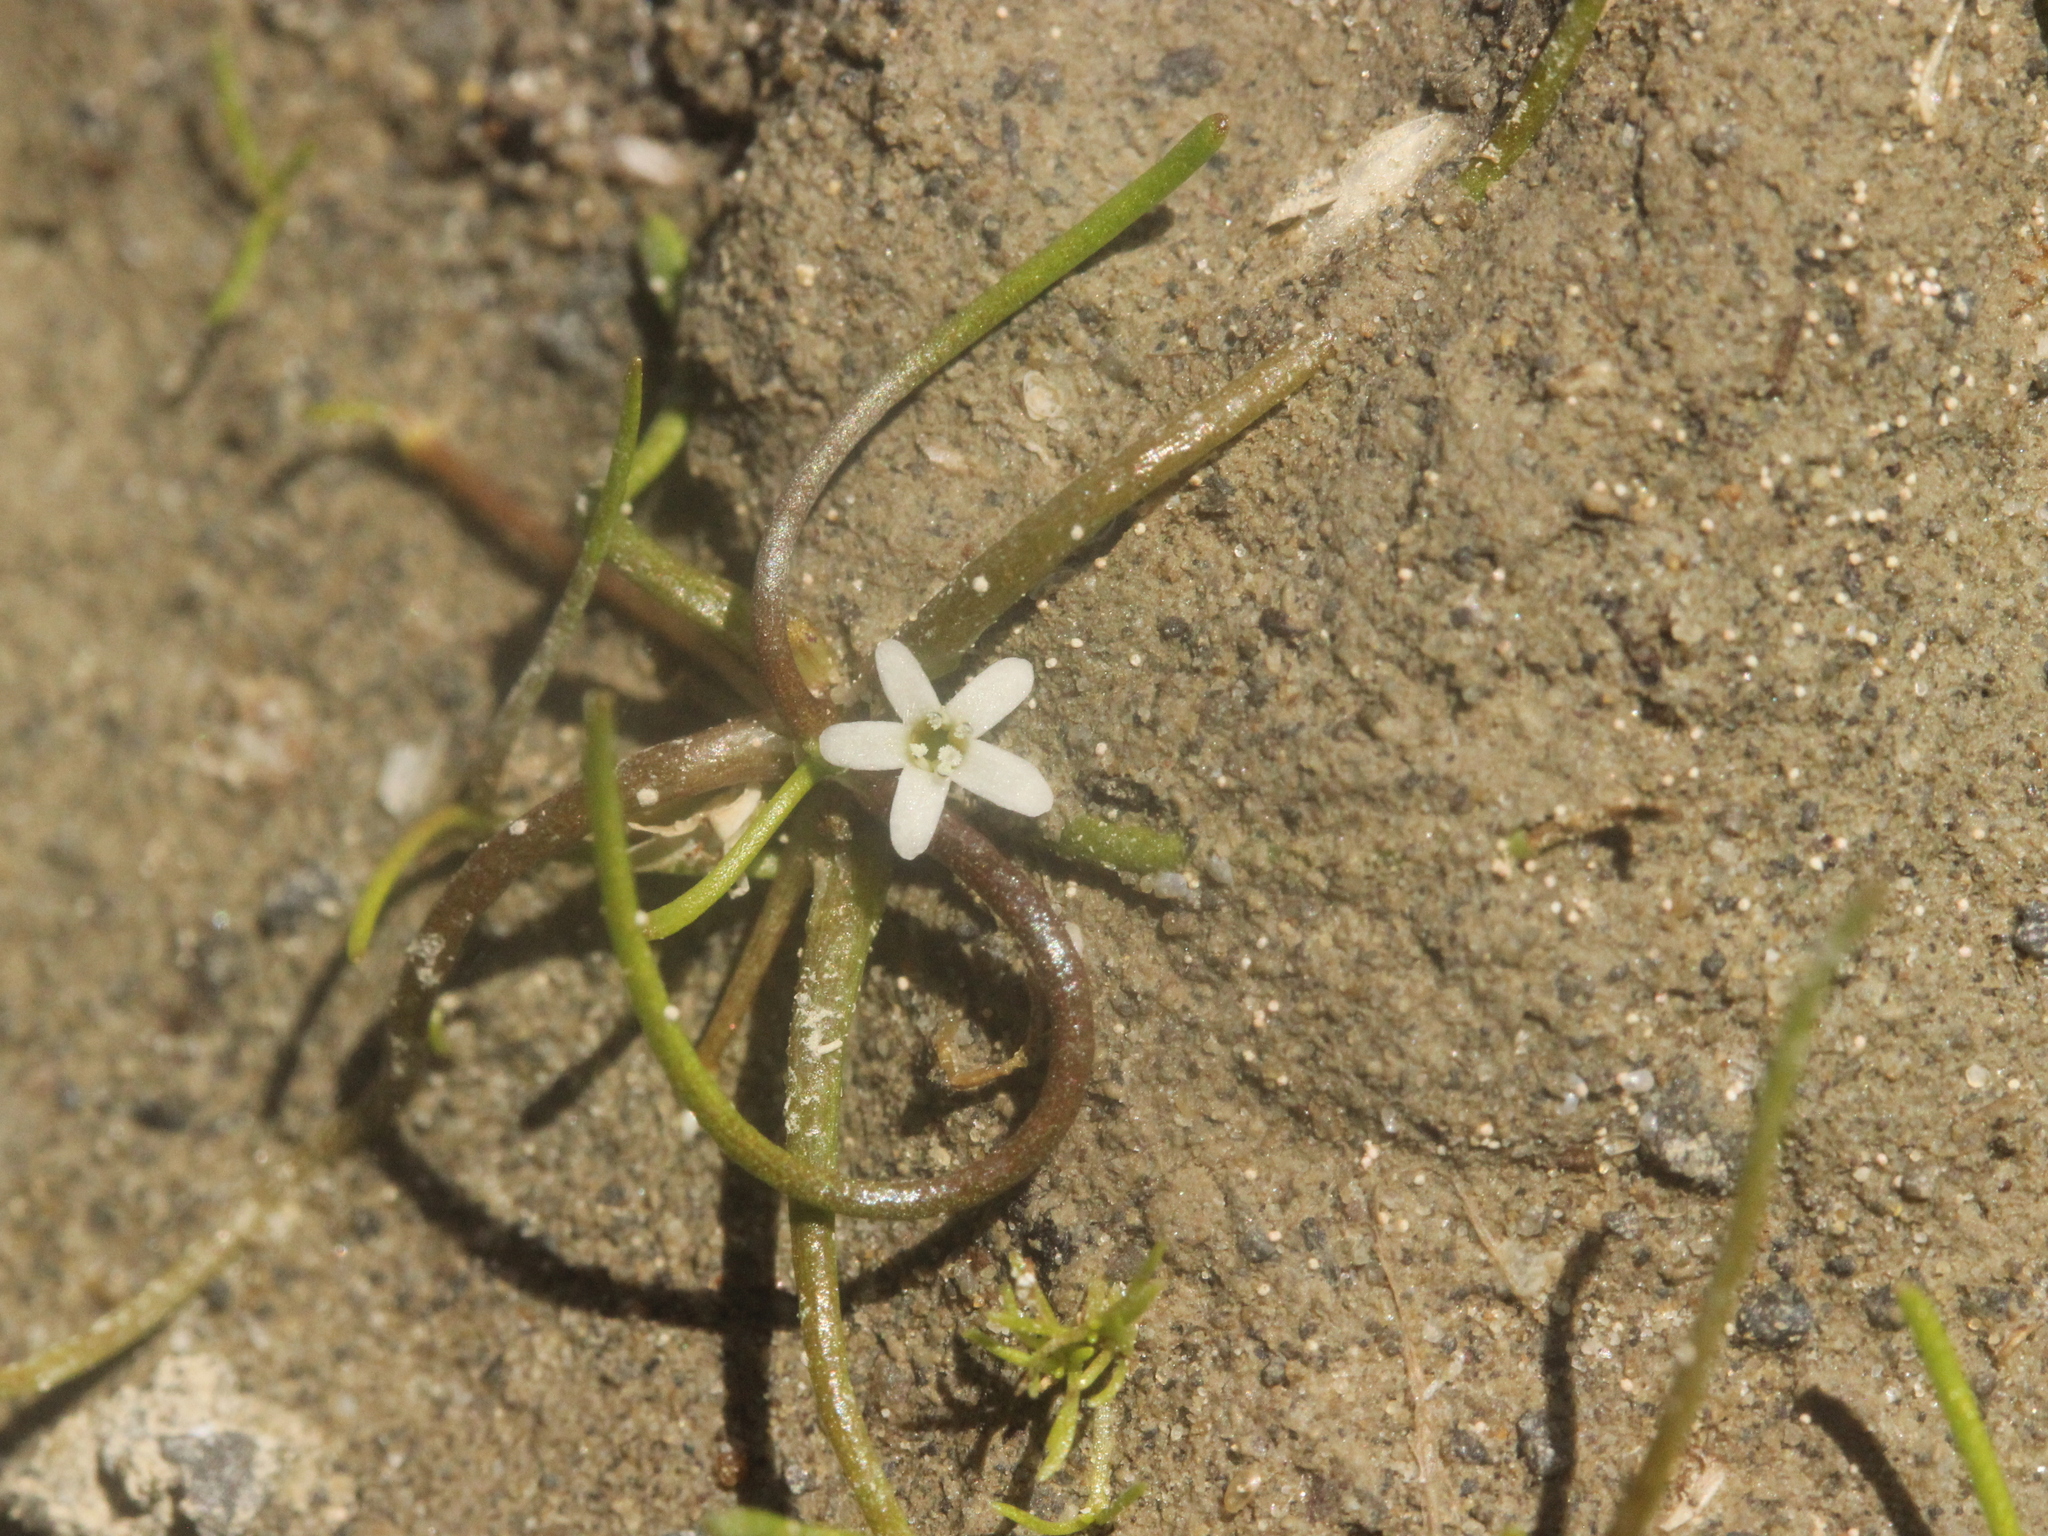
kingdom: Plantae
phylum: Tracheophyta
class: Magnoliopsida
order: Lamiales
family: Scrophulariaceae
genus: Limosella
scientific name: Limosella australis
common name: Welsh mudwort
